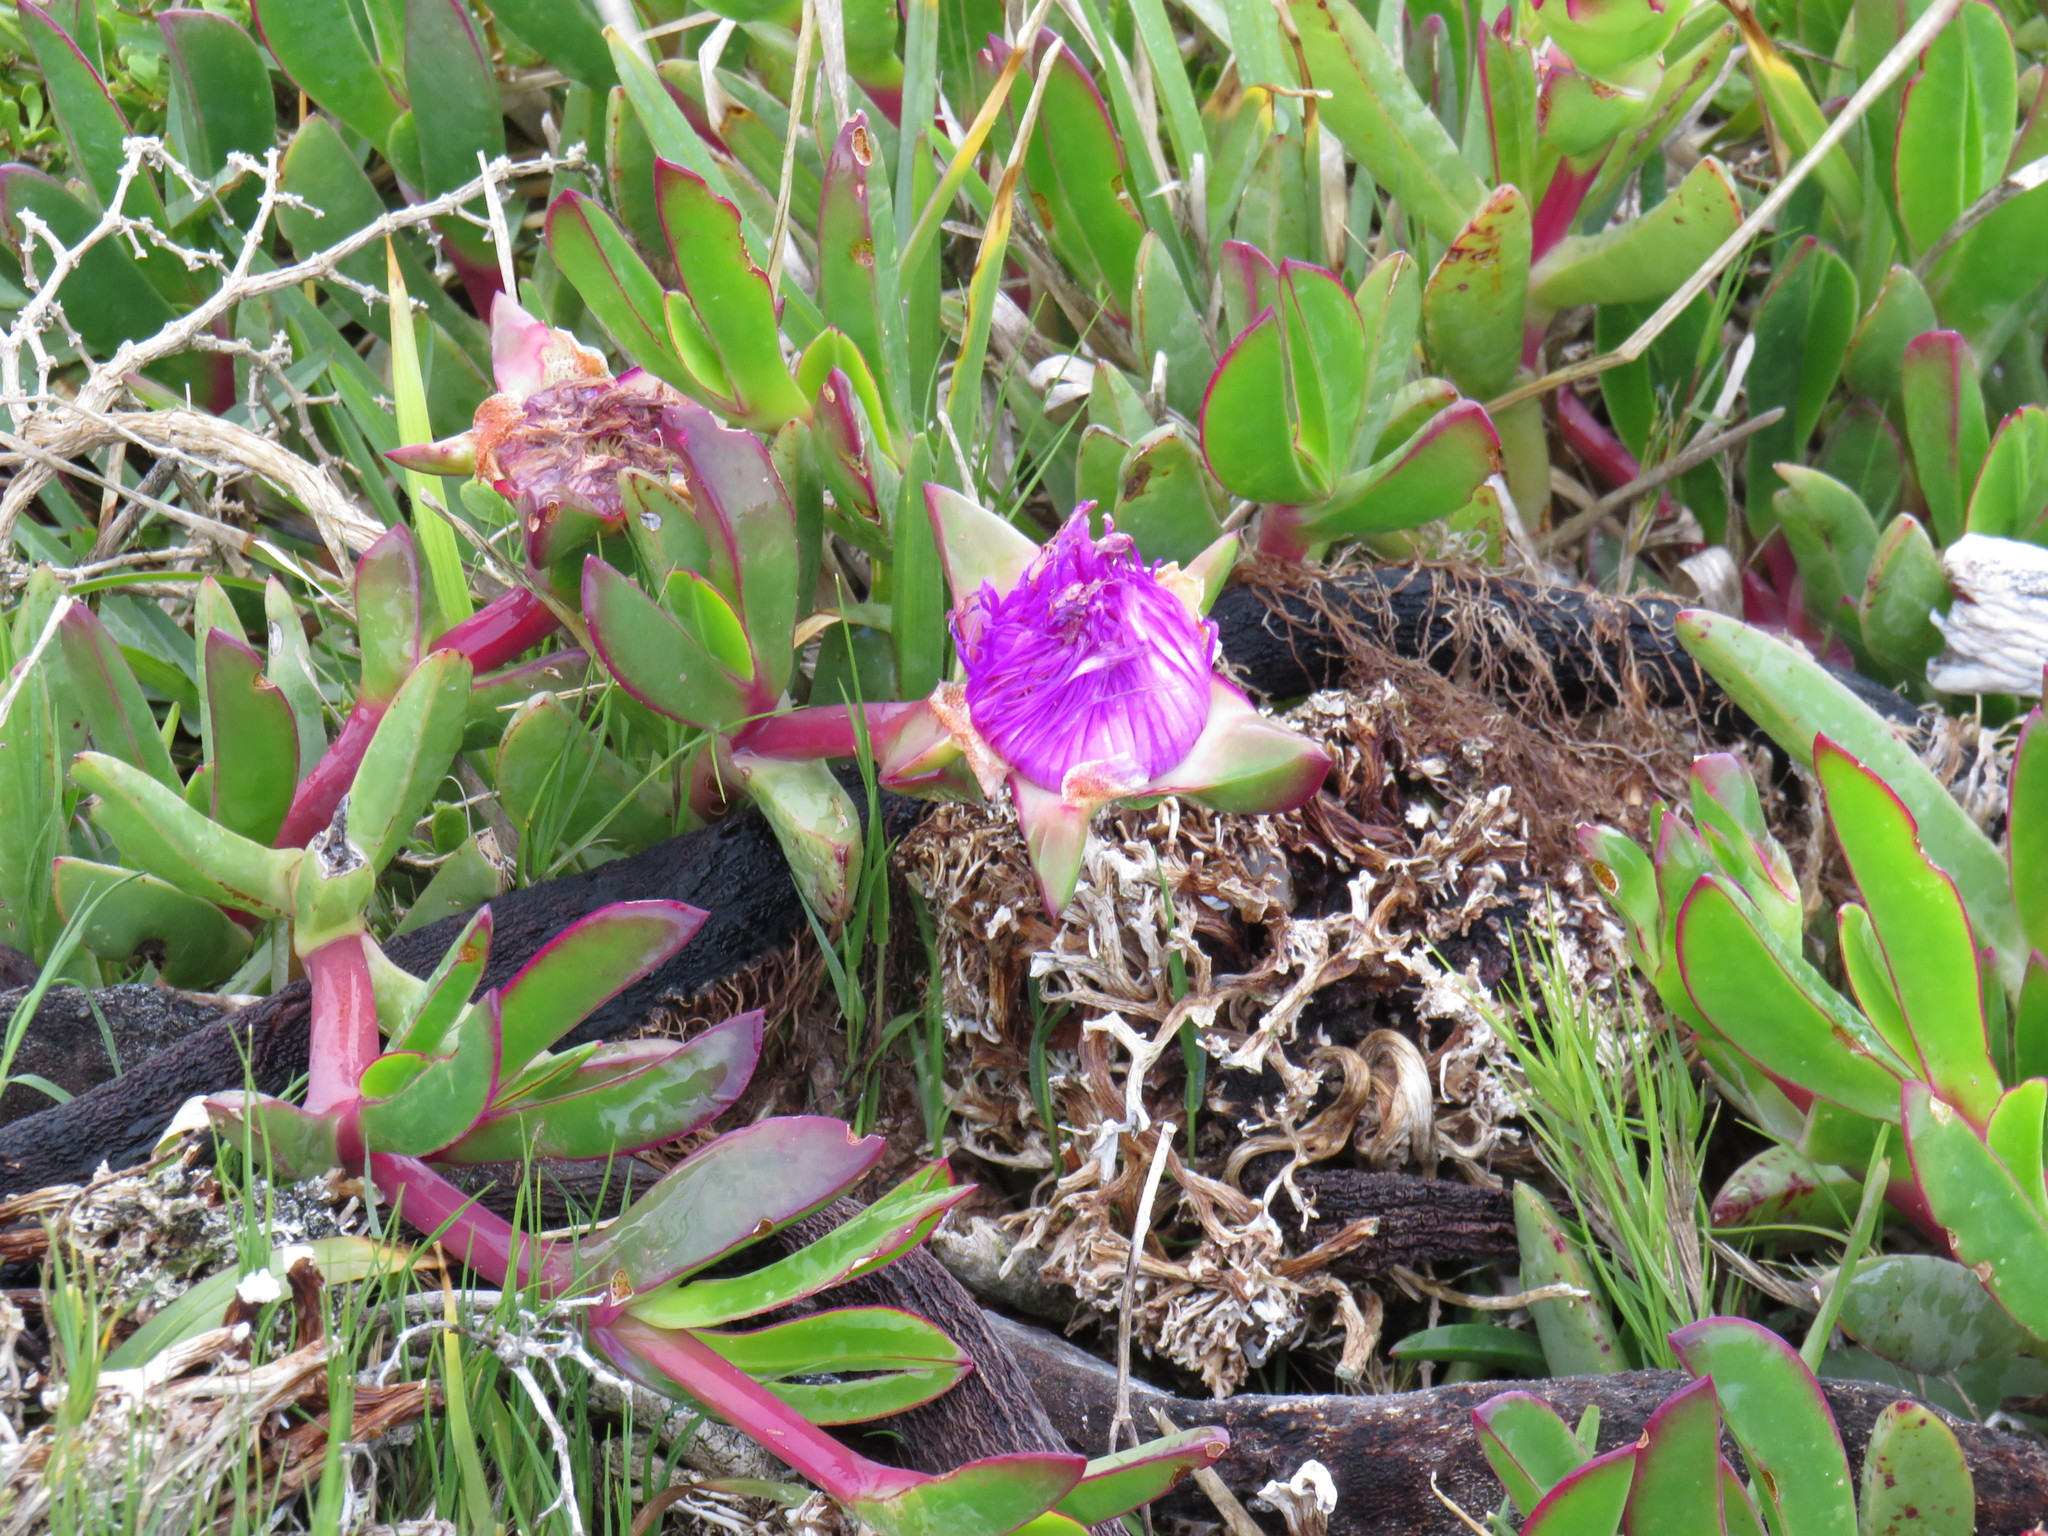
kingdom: Plantae
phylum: Tracheophyta
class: Magnoliopsida
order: Caryophyllales
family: Aizoaceae
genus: Carpobrotus
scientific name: Carpobrotus acinaciformis
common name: Sally-my-handsome
